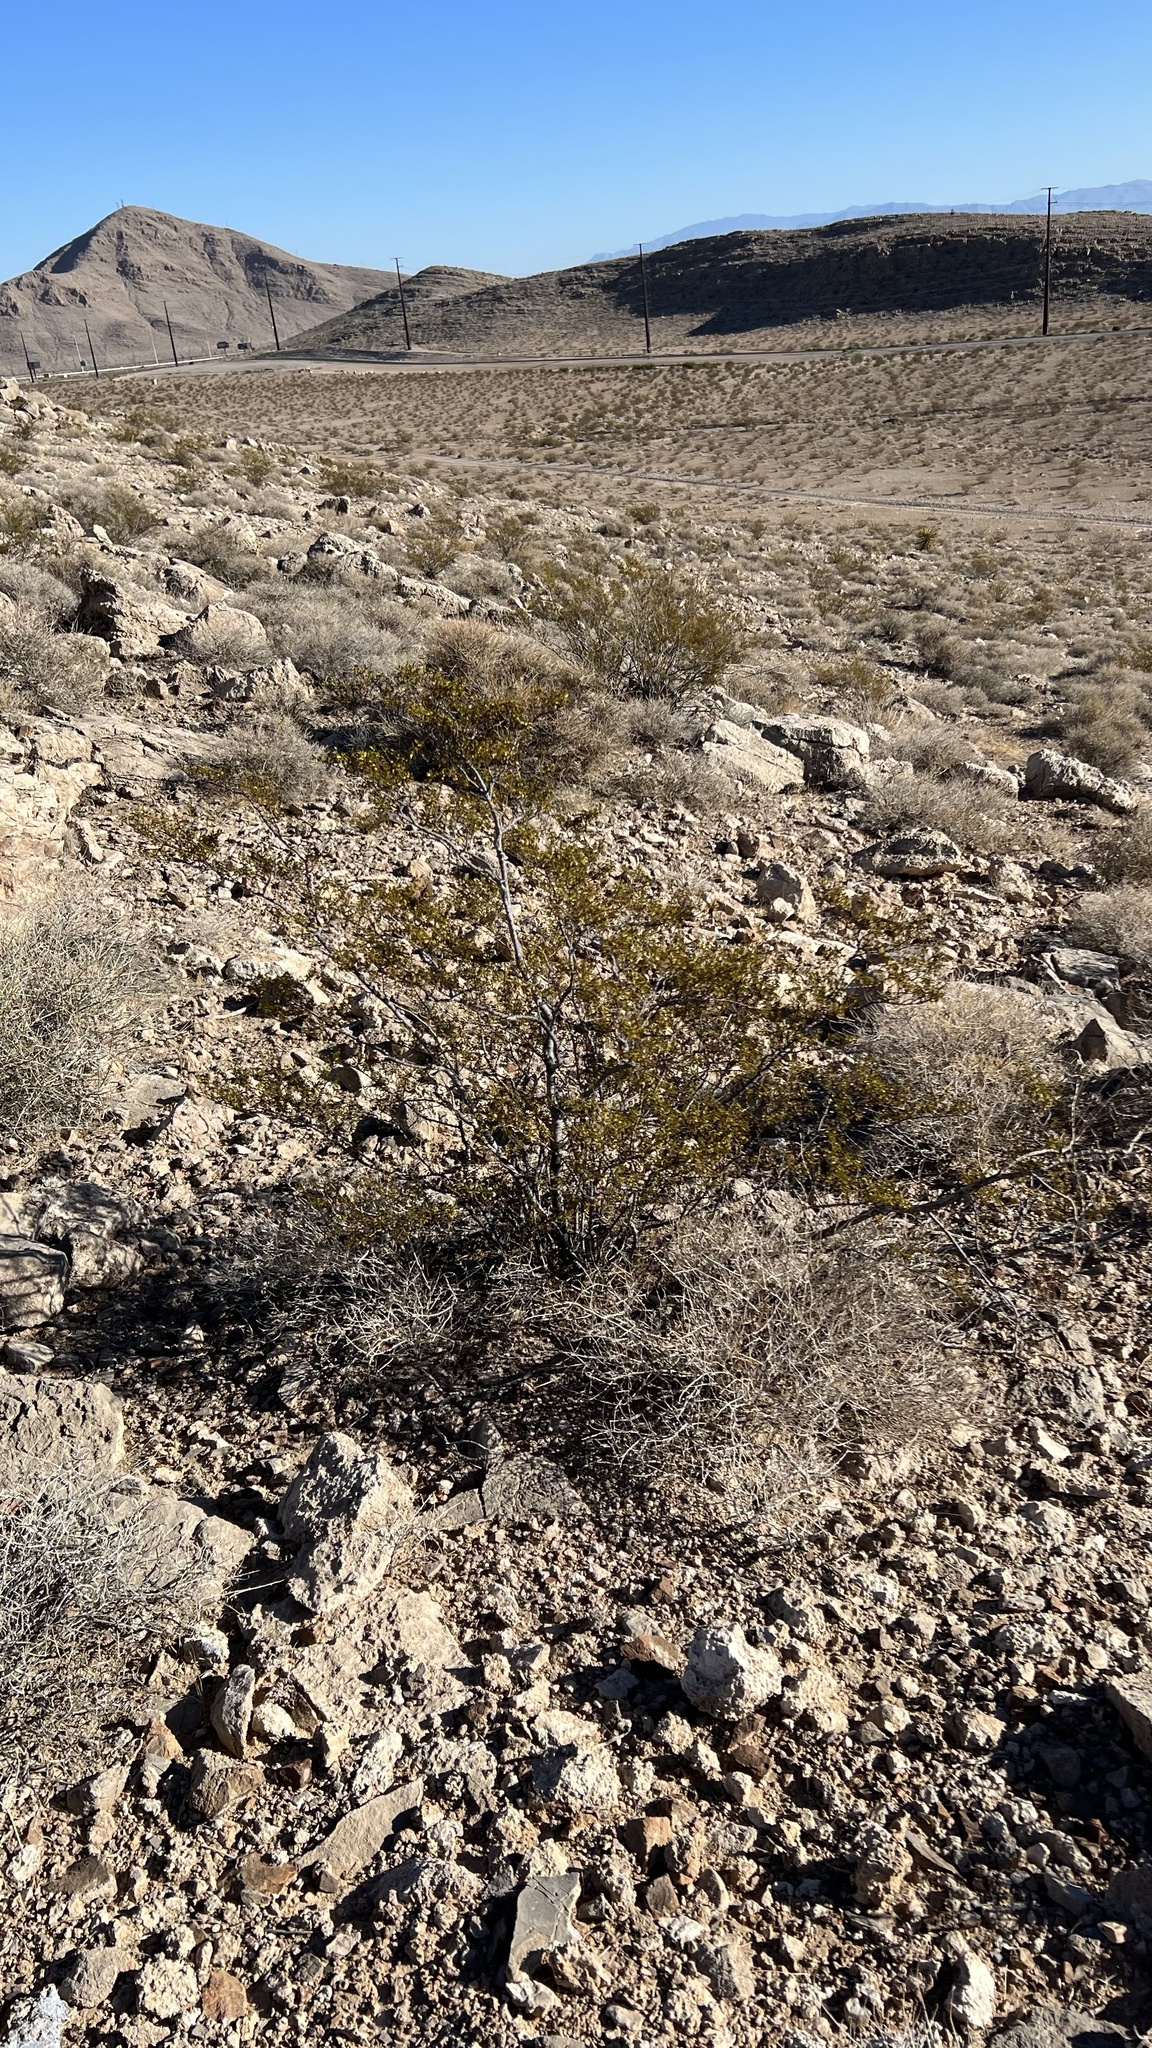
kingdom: Plantae
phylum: Tracheophyta
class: Magnoliopsida
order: Zygophyllales
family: Zygophyllaceae
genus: Larrea
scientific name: Larrea tridentata
